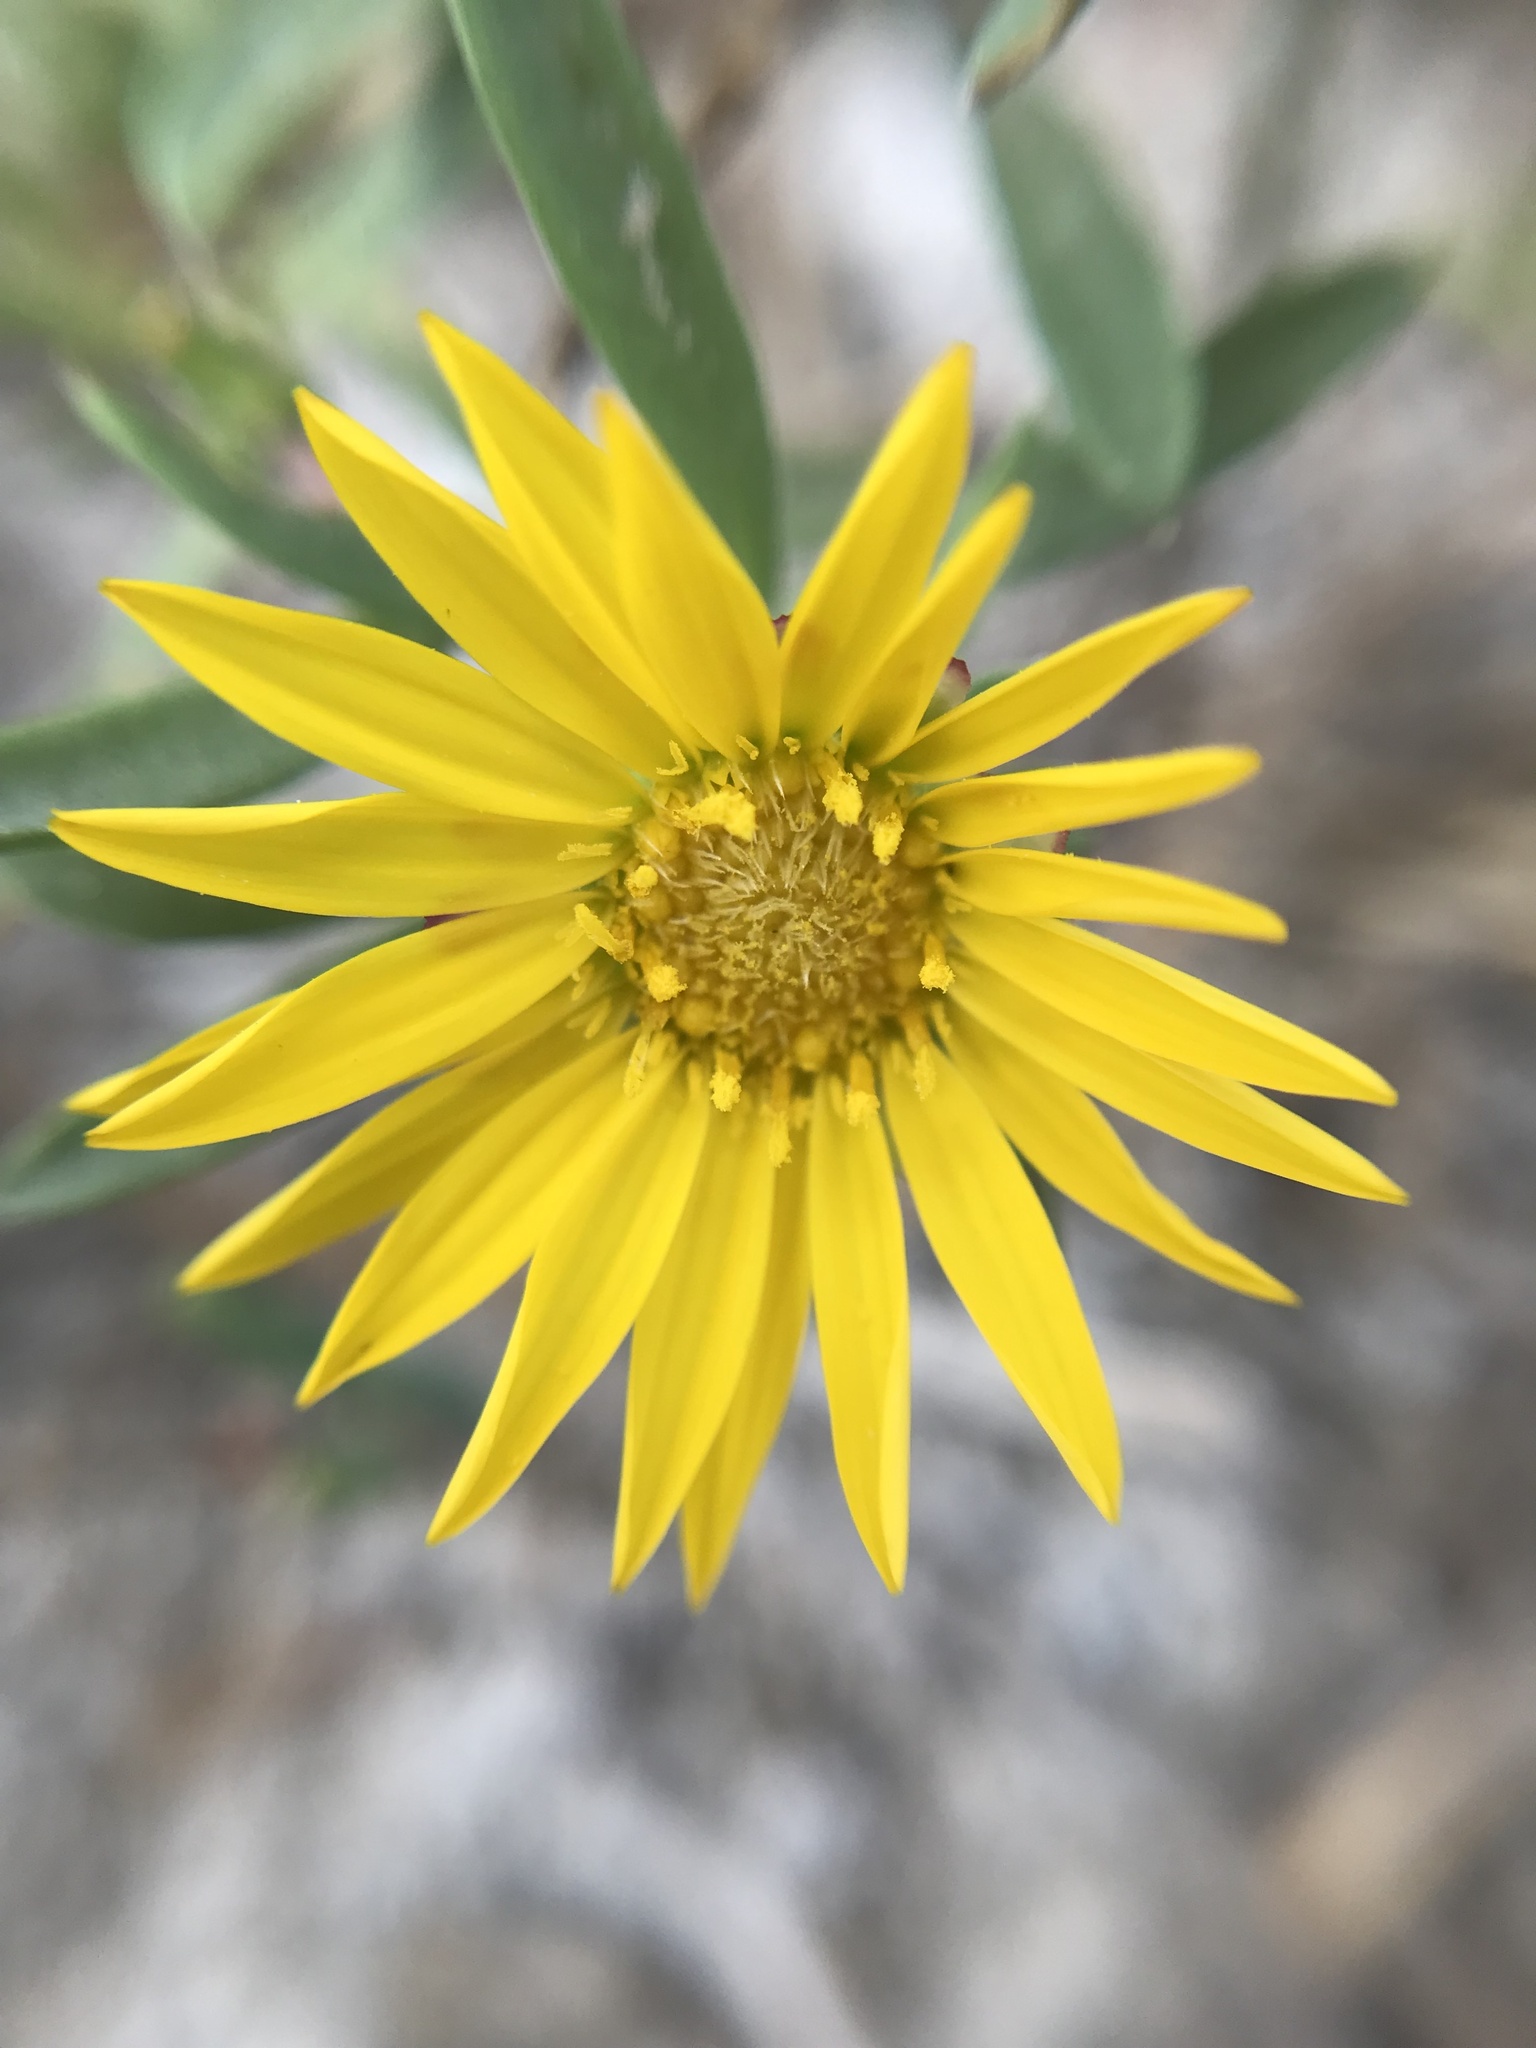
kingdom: Plantae
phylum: Tracheophyta
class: Magnoliopsida
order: Asterales
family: Asteraceae
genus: Grindelia
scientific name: Grindelia ragonesei
